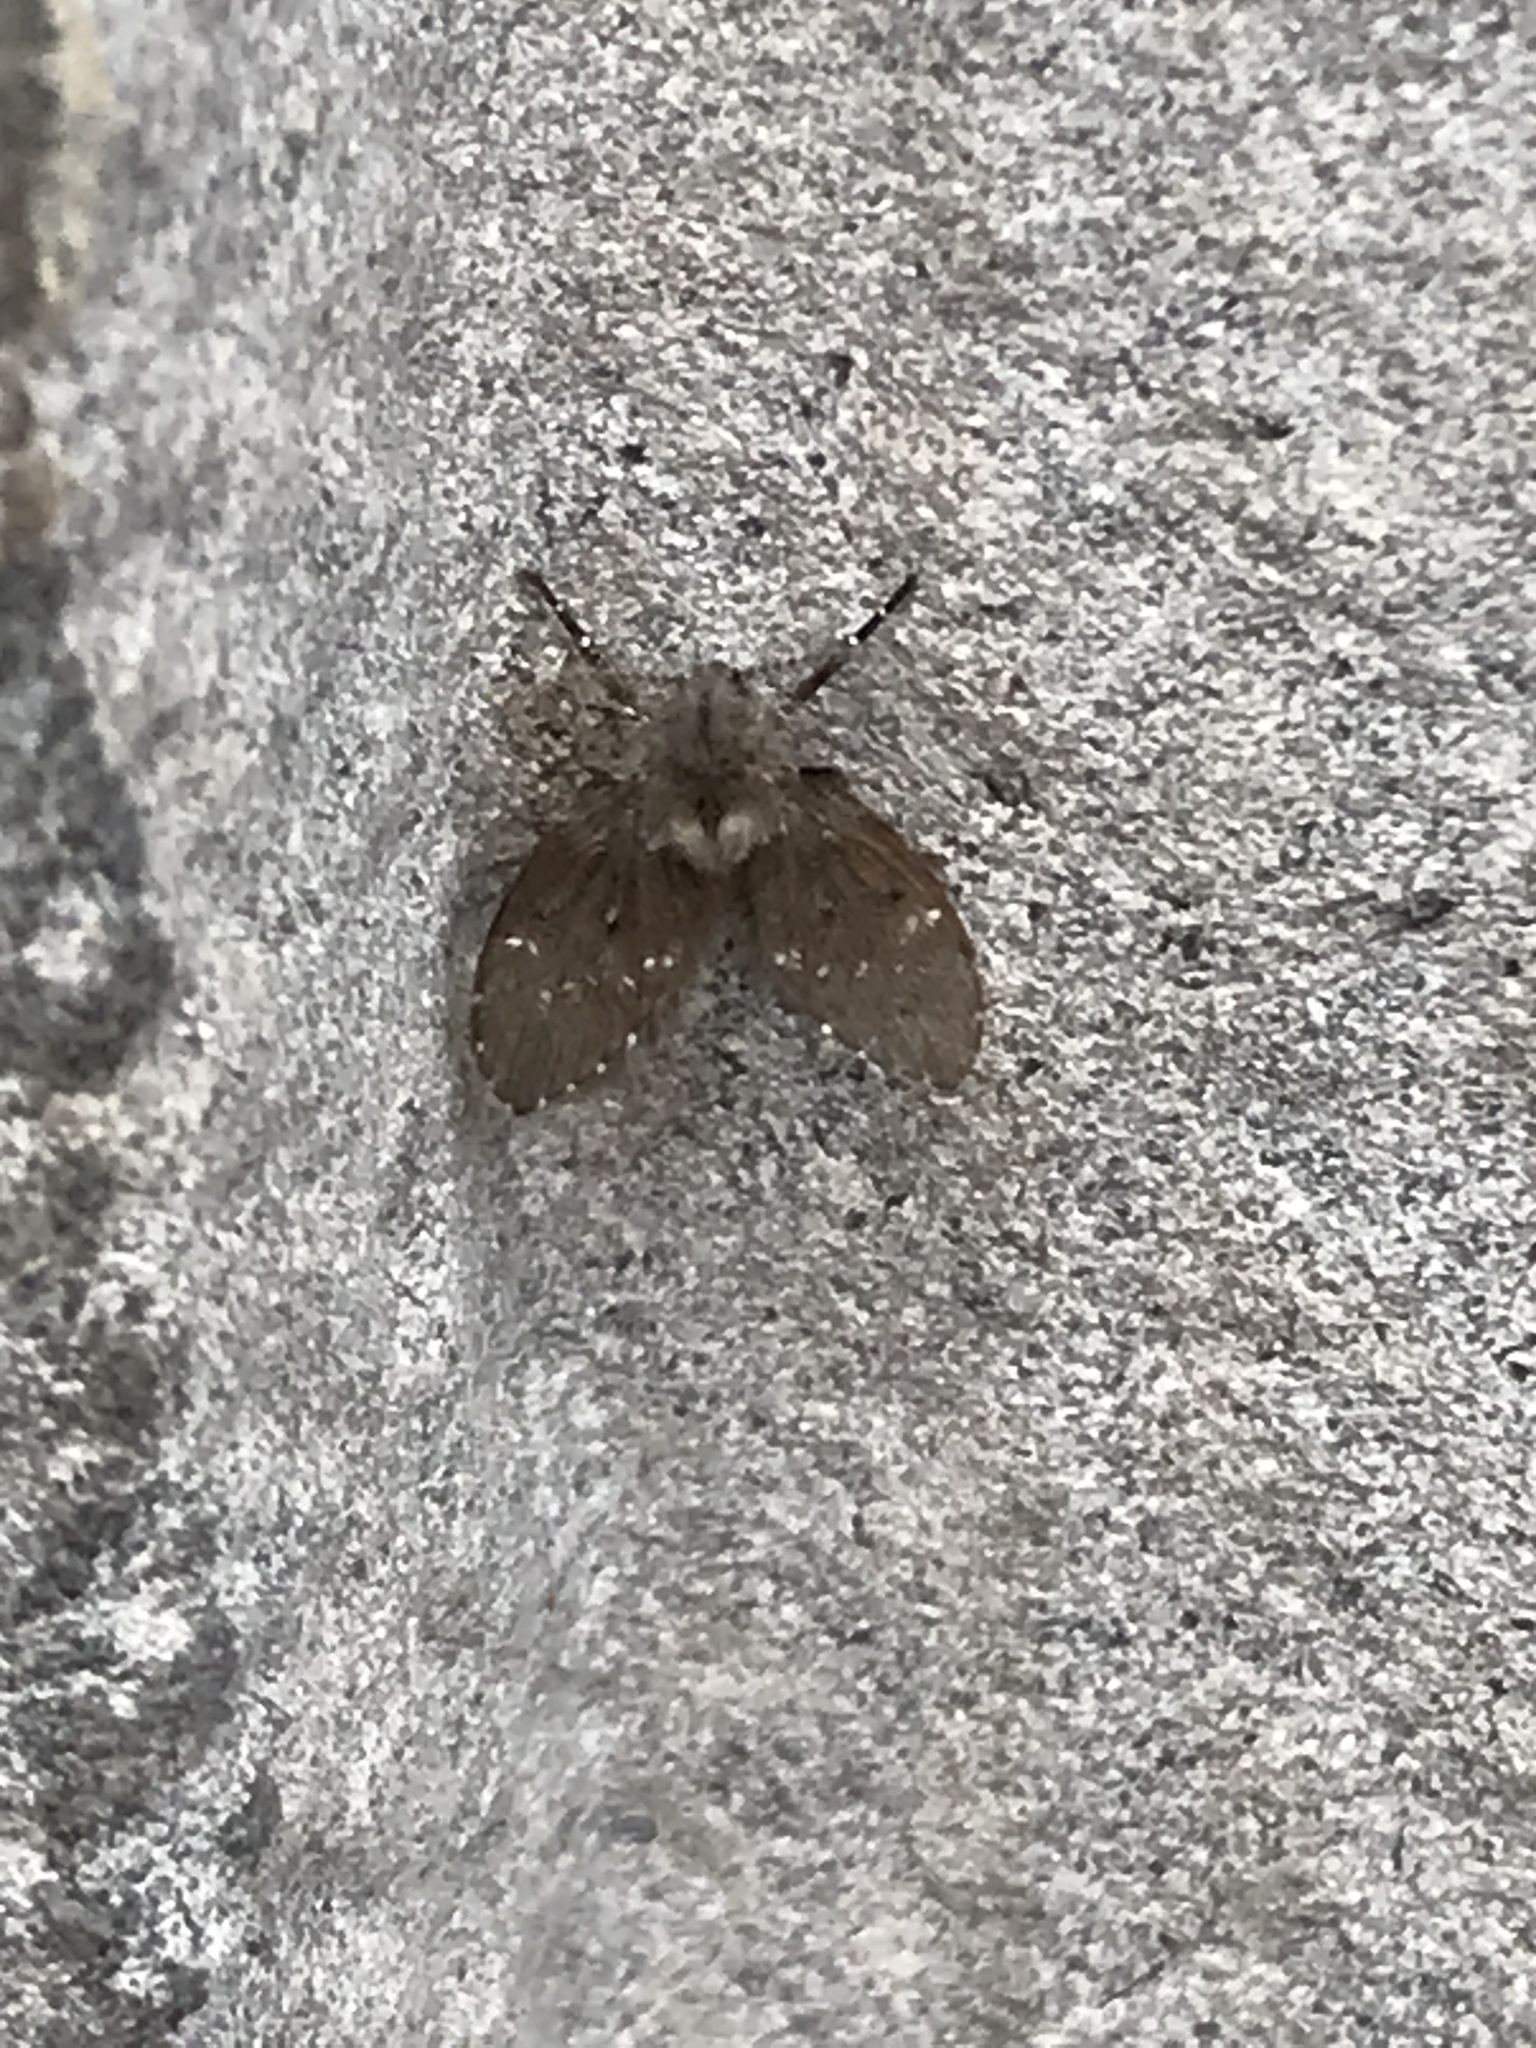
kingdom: Animalia
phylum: Arthropoda
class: Insecta
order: Diptera
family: Psychodidae
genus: Clogmia
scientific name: Clogmia albipunctatus
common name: White-spotted moth fly
